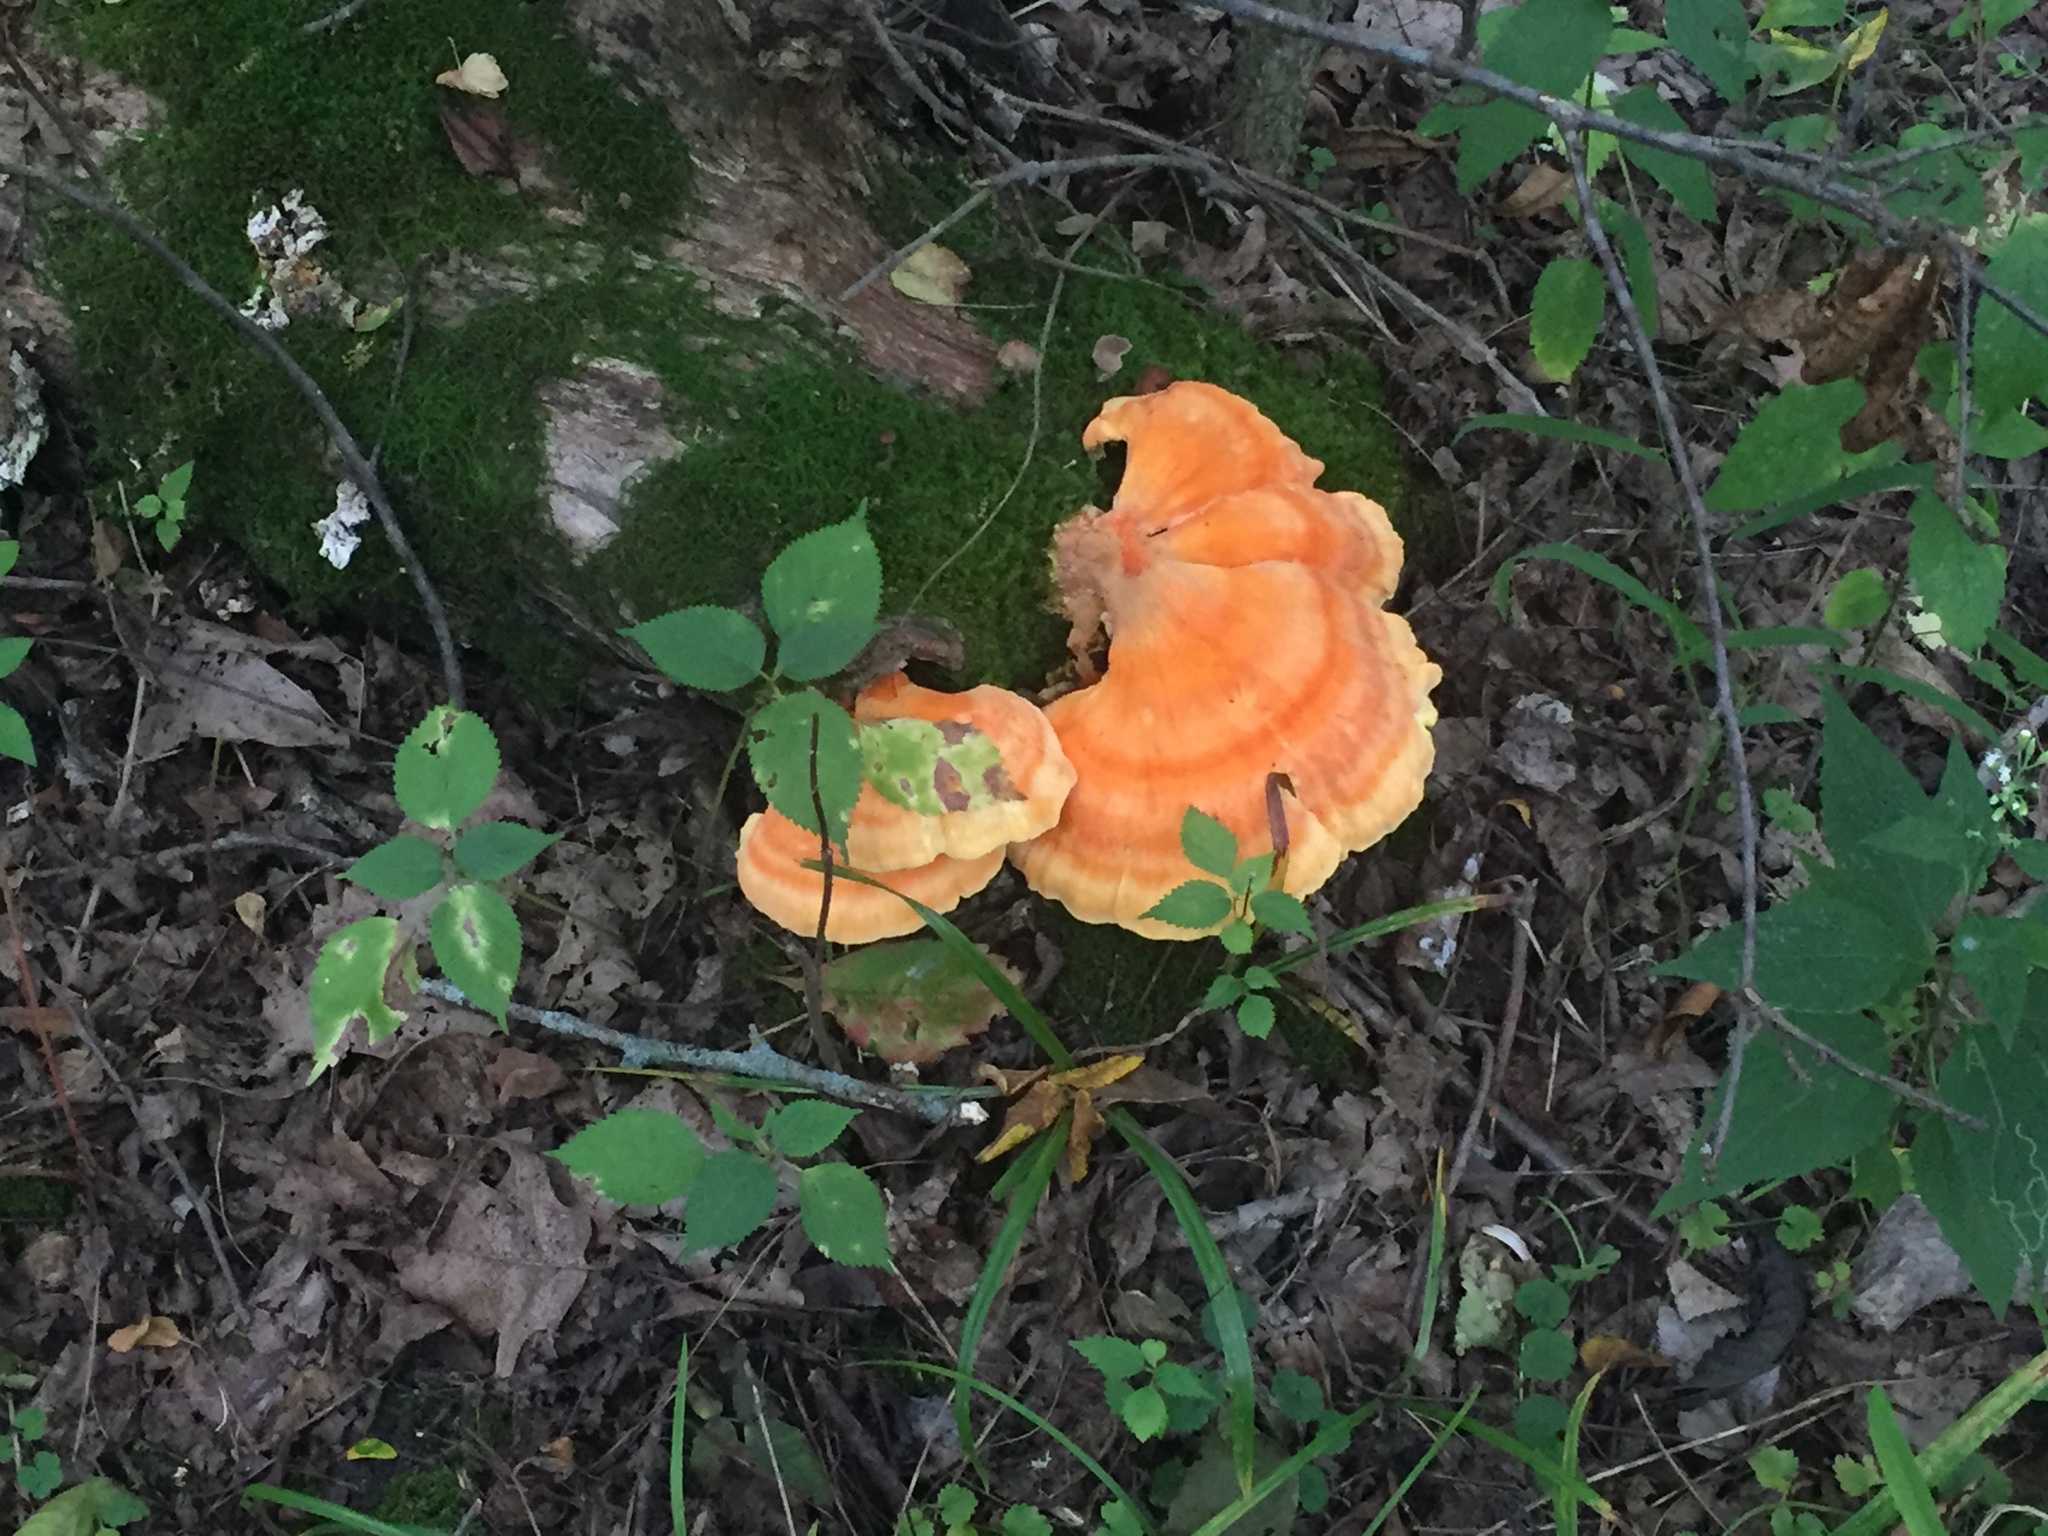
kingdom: Fungi
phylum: Basidiomycota
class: Agaricomycetes
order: Polyporales
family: Laetiporaceae
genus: Laetiporus
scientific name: Laetiporus sulphureus
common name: Chicken of the woods
